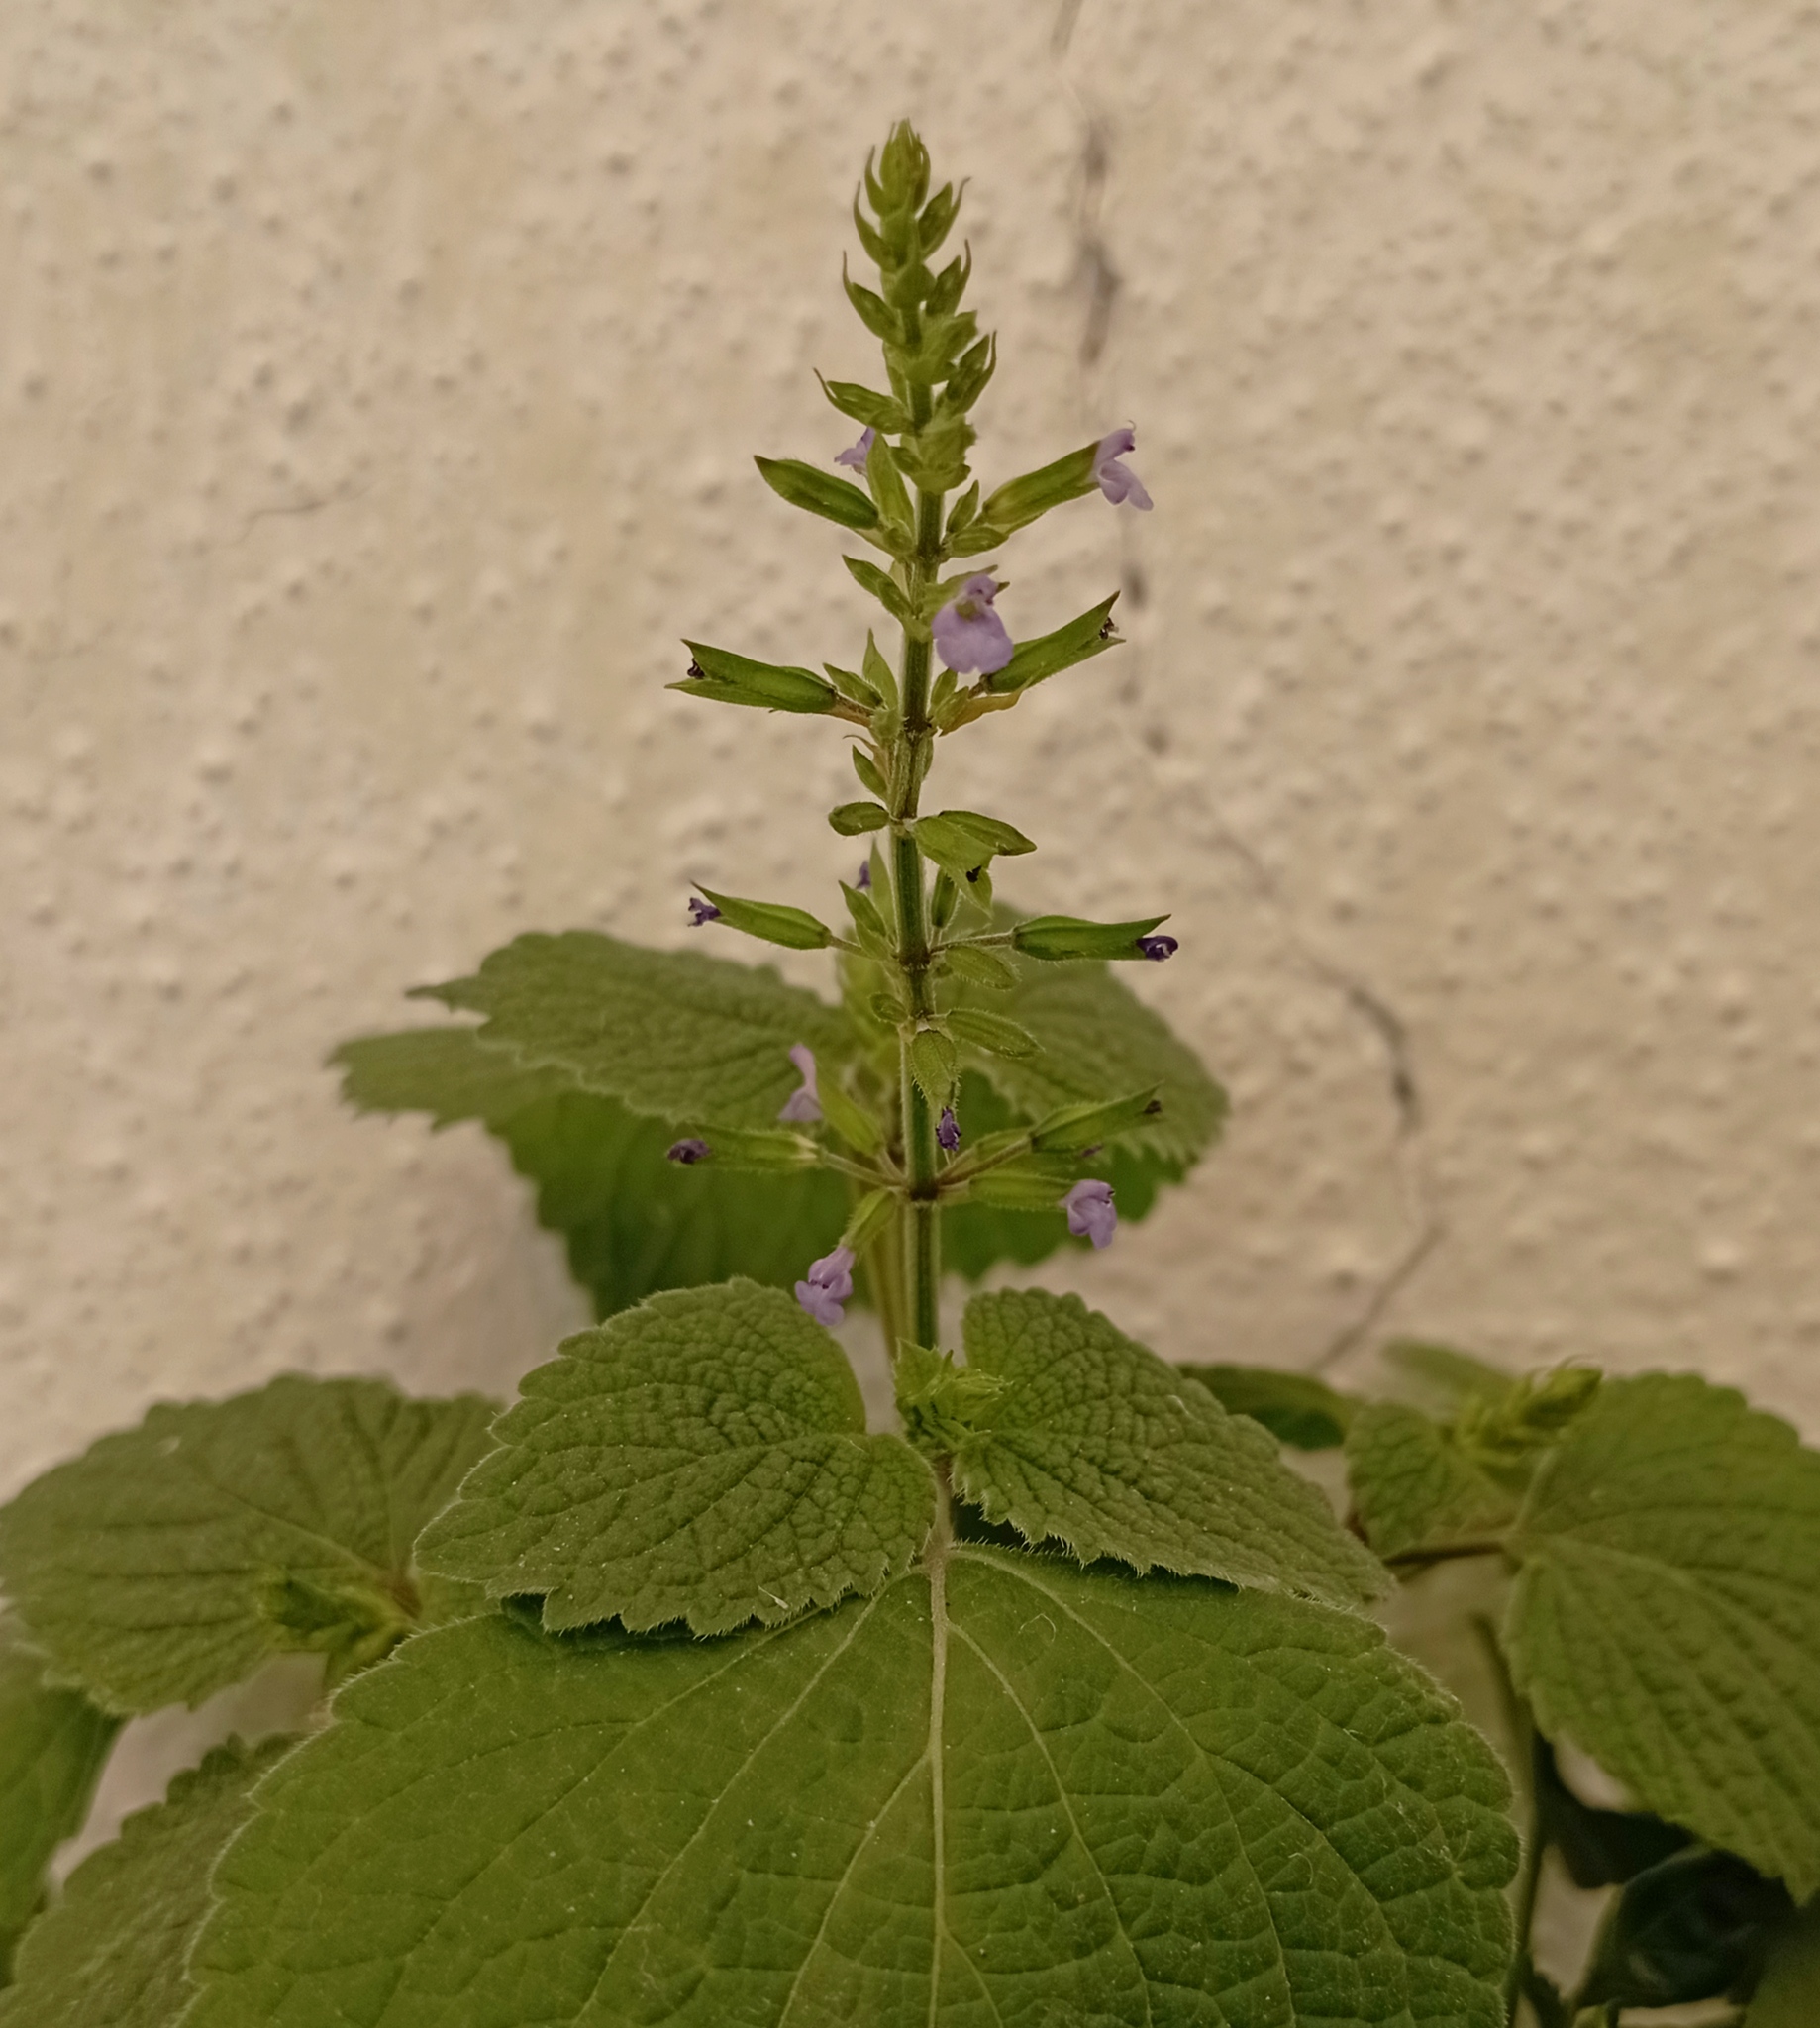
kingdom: Plantae
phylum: Tracheophyta
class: Magnoliopsida
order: Lamiales
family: Lamiaceae
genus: Salvia
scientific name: Salvia tiliifolia
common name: Lindenleaf sage
